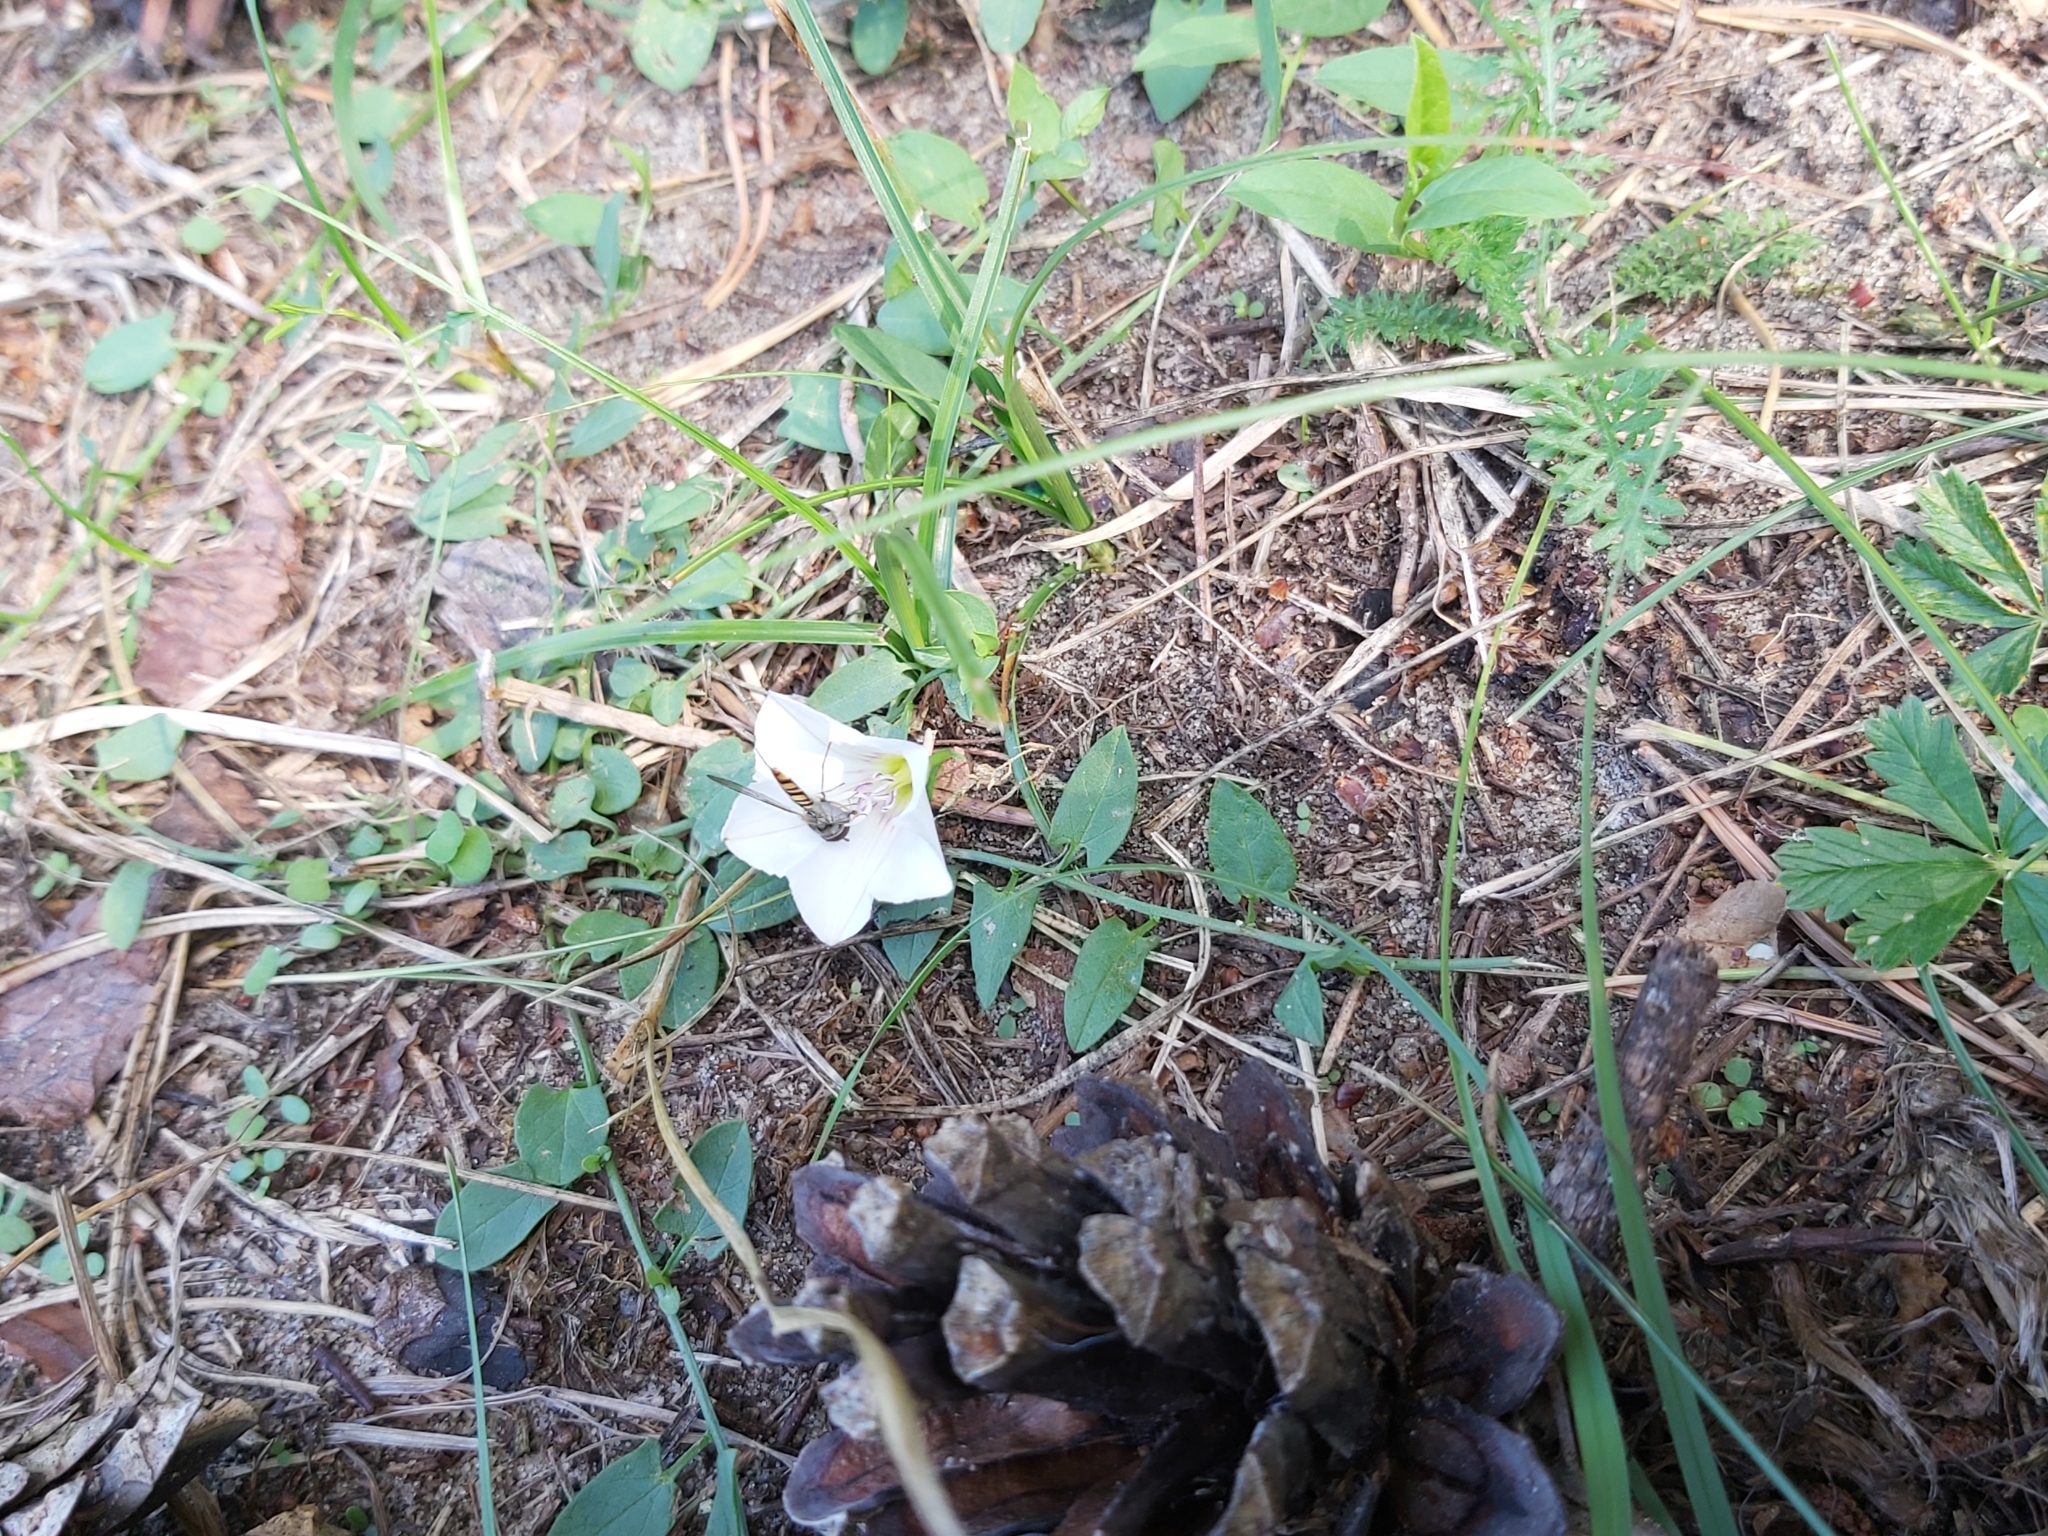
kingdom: Plantae
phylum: Tracheophyta
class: Magnoliopsida
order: Solanales
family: Convolvulaceae
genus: Convolvulus
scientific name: Convolvulus arvensis
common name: Field bindweed
